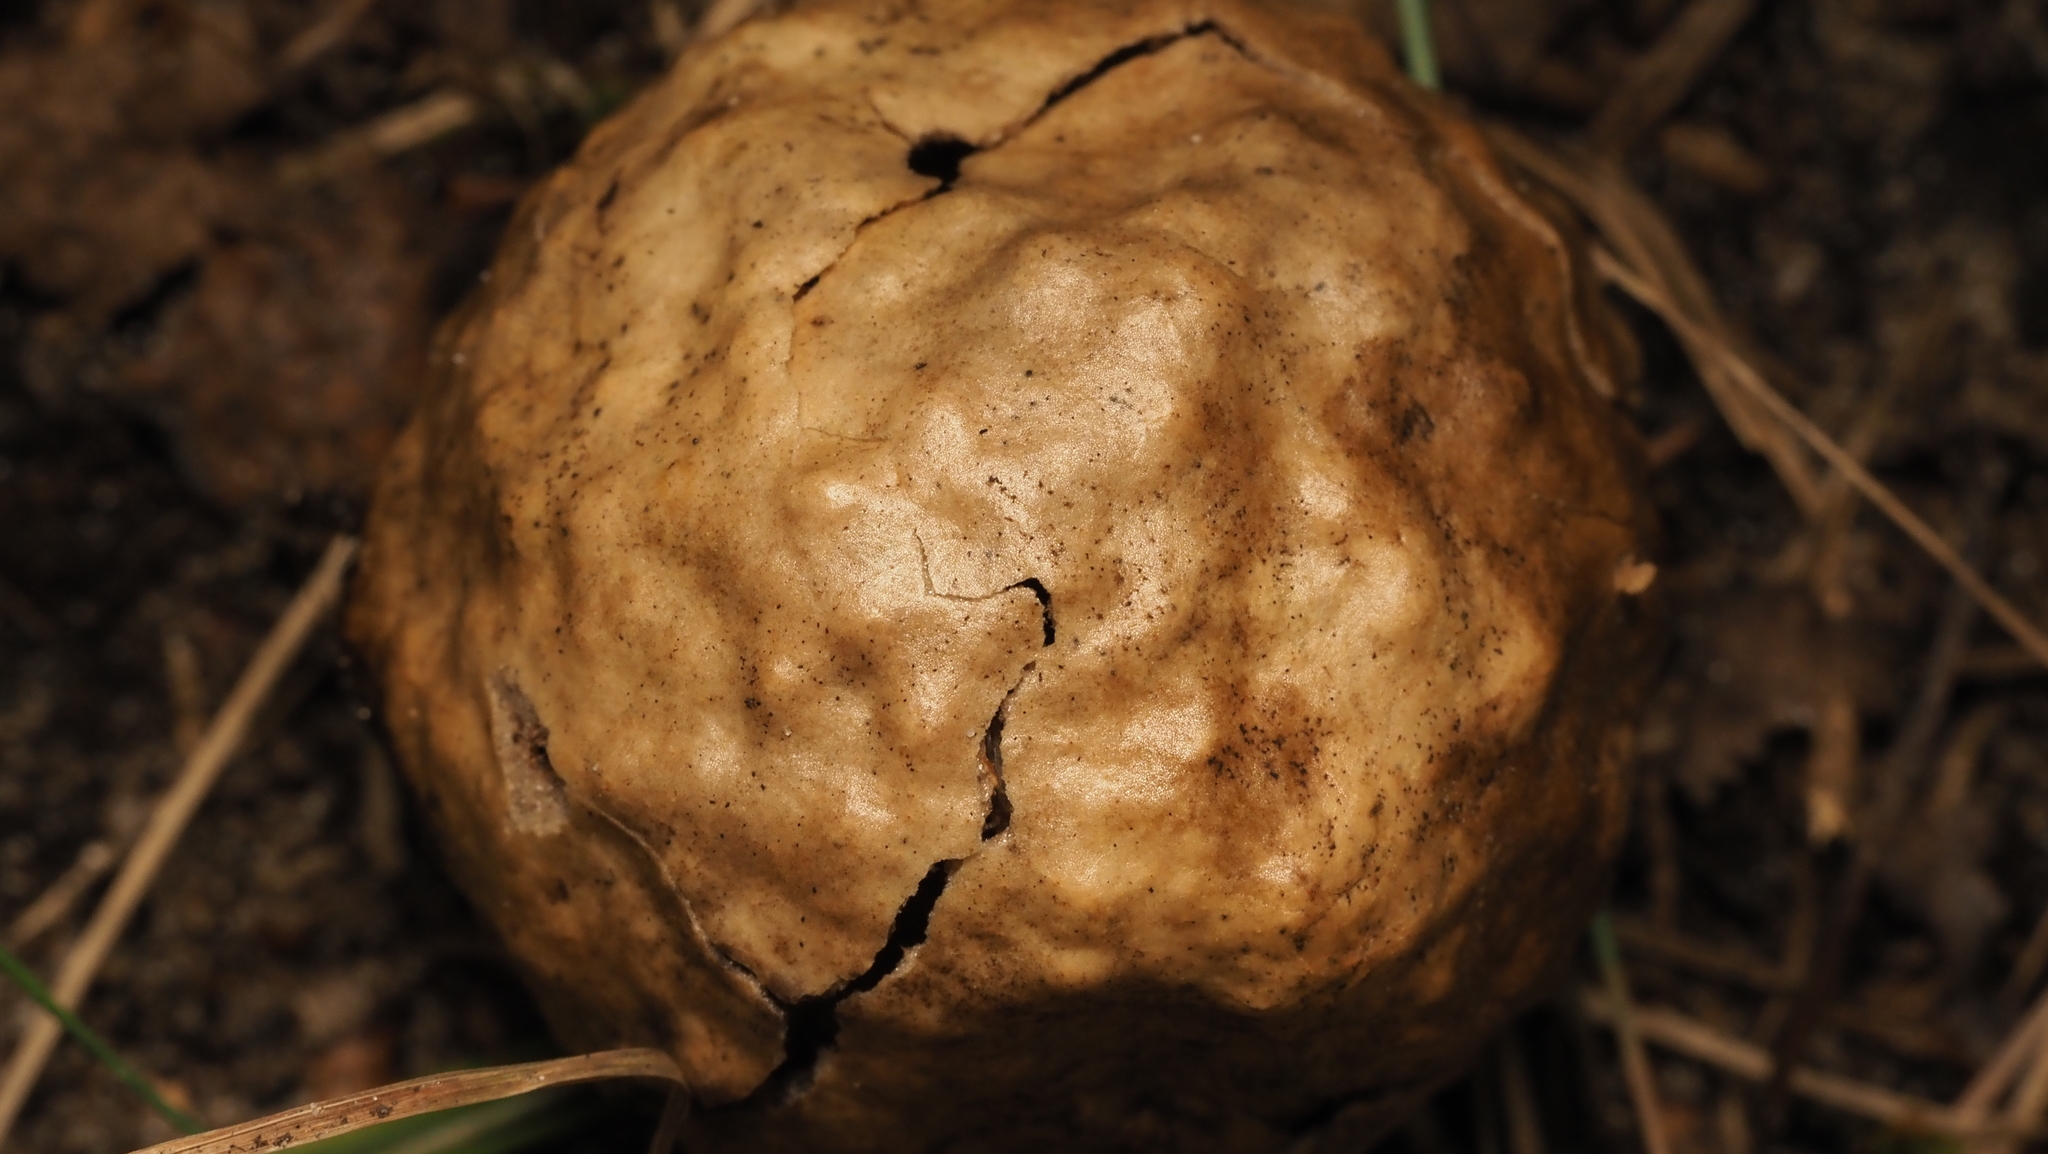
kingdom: Animalia
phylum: Arthropoda
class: Insecta
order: Hymenoptera
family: Cynipidae
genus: Amphibolips
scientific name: Amphibolips
